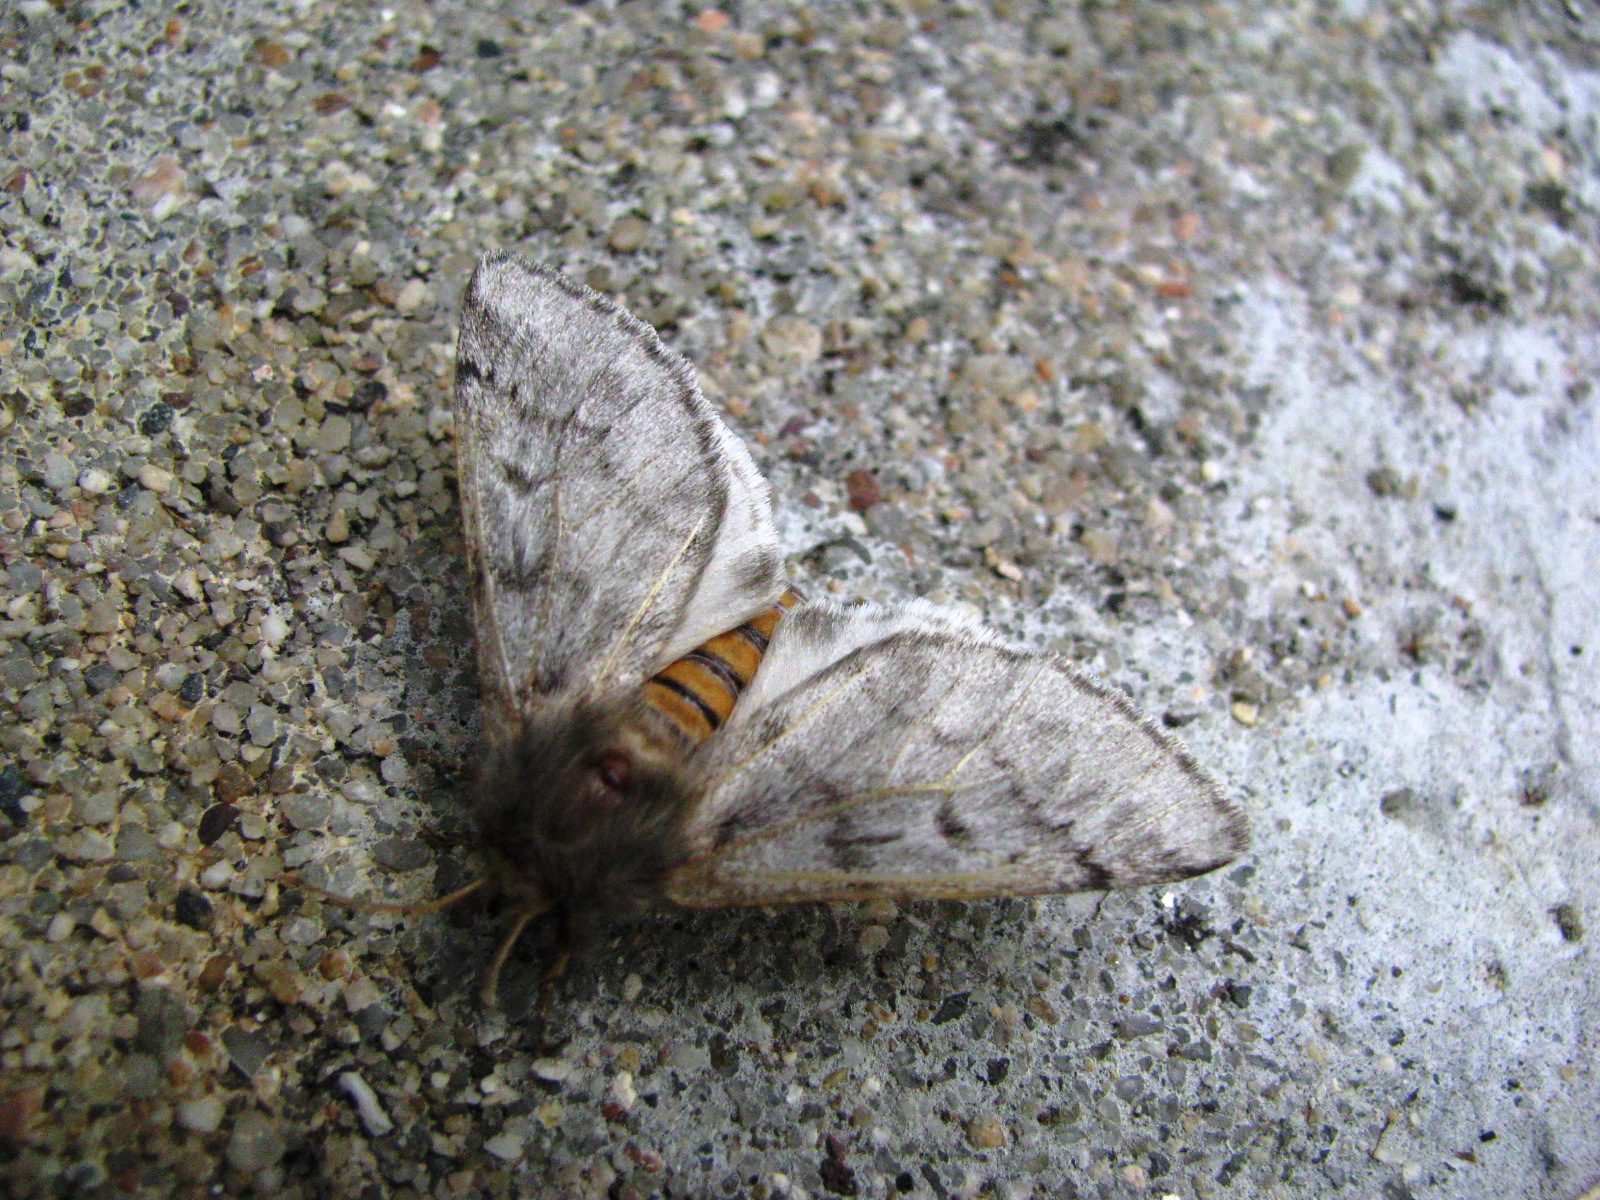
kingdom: Animalia
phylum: Arthropoda
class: Insecta
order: Lepidoptera
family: Notodontidae
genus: Thaumetopoea
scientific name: Thaumetopoea pityocampa
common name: Pine processionary
